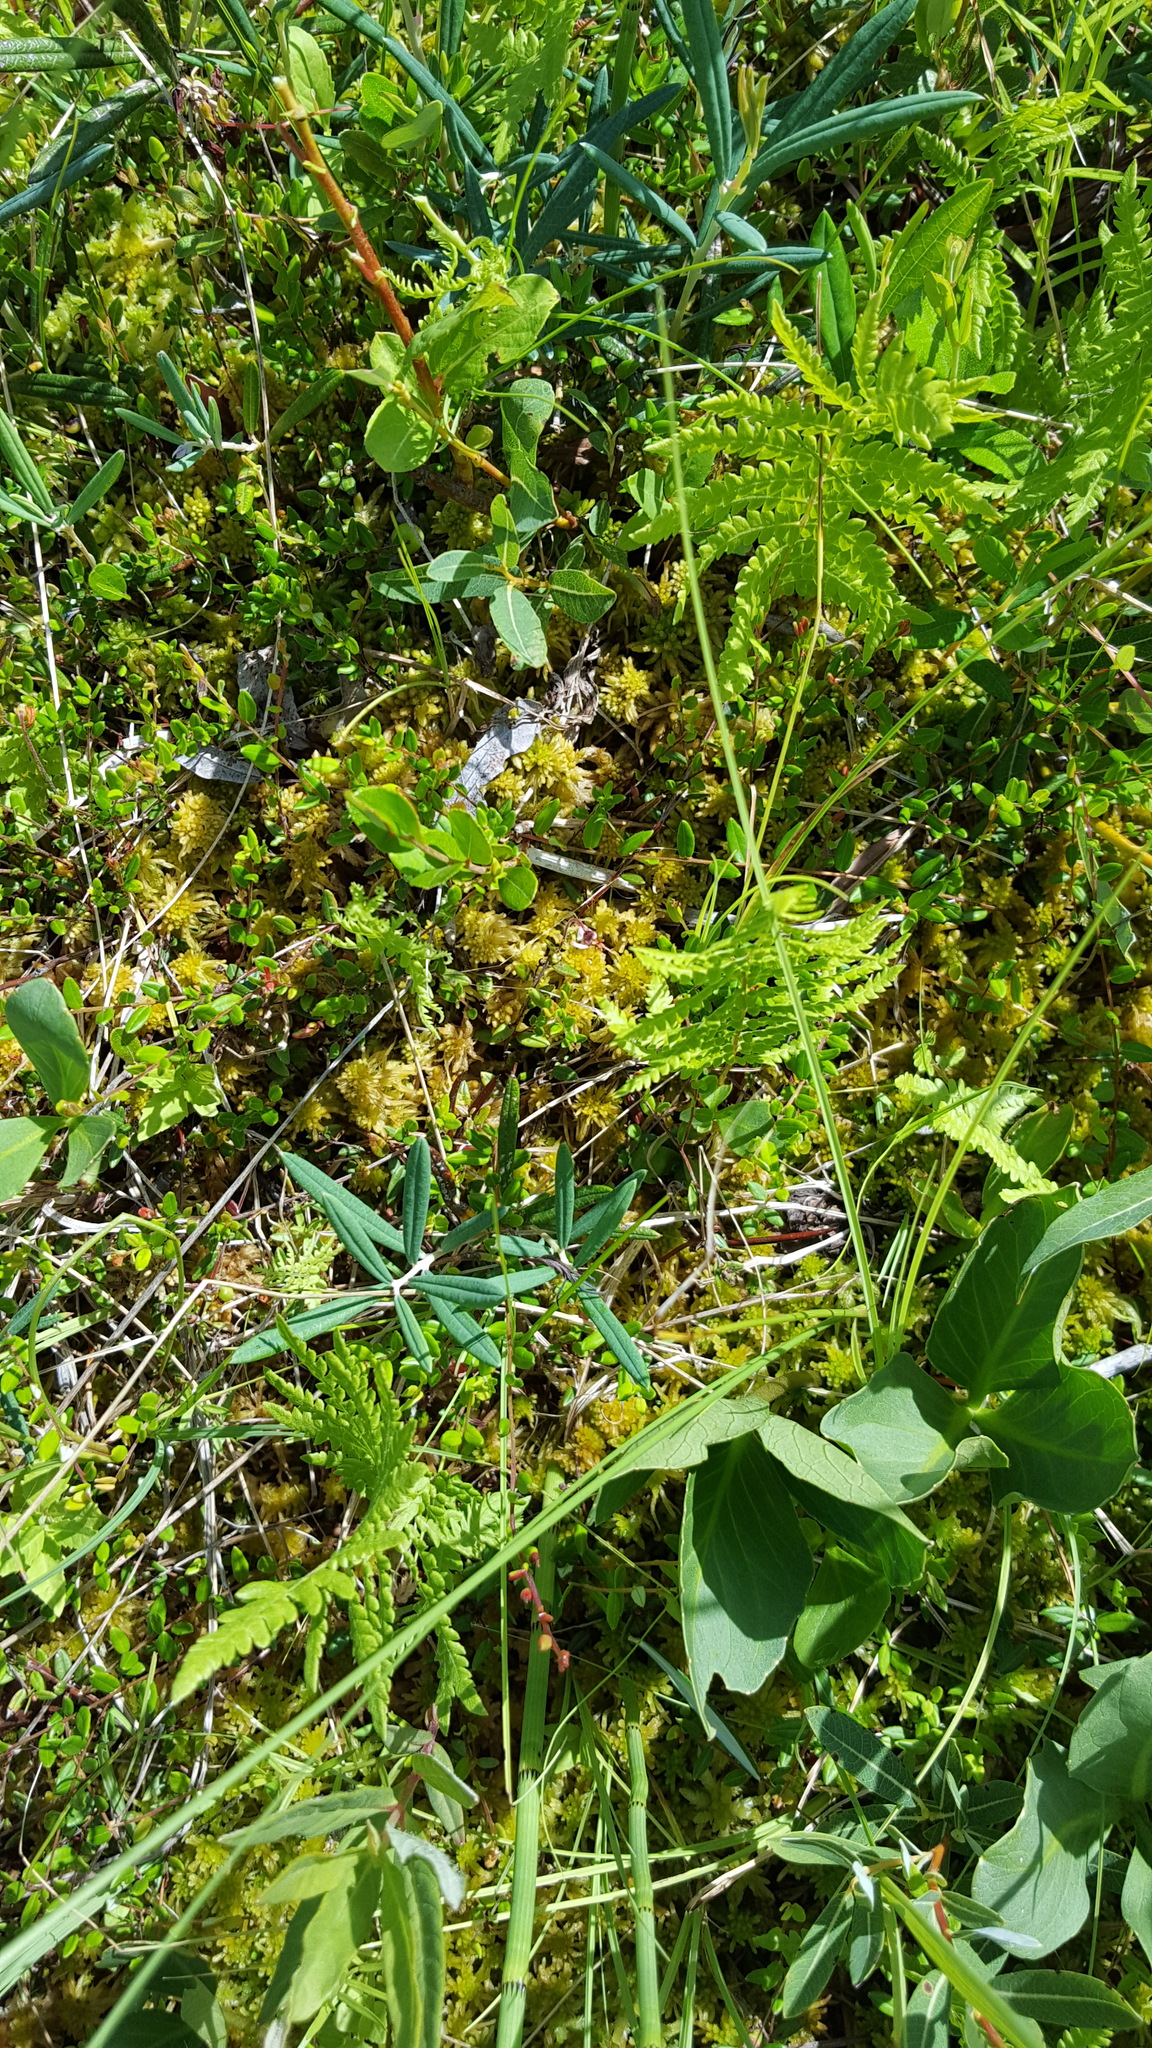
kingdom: Plantae
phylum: Tracheophyta
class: Polypodiopsida
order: Polypodiales
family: Thelypteridaceae
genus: Thelypteris
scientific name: Thelypteris palustris
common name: Marsh fern
